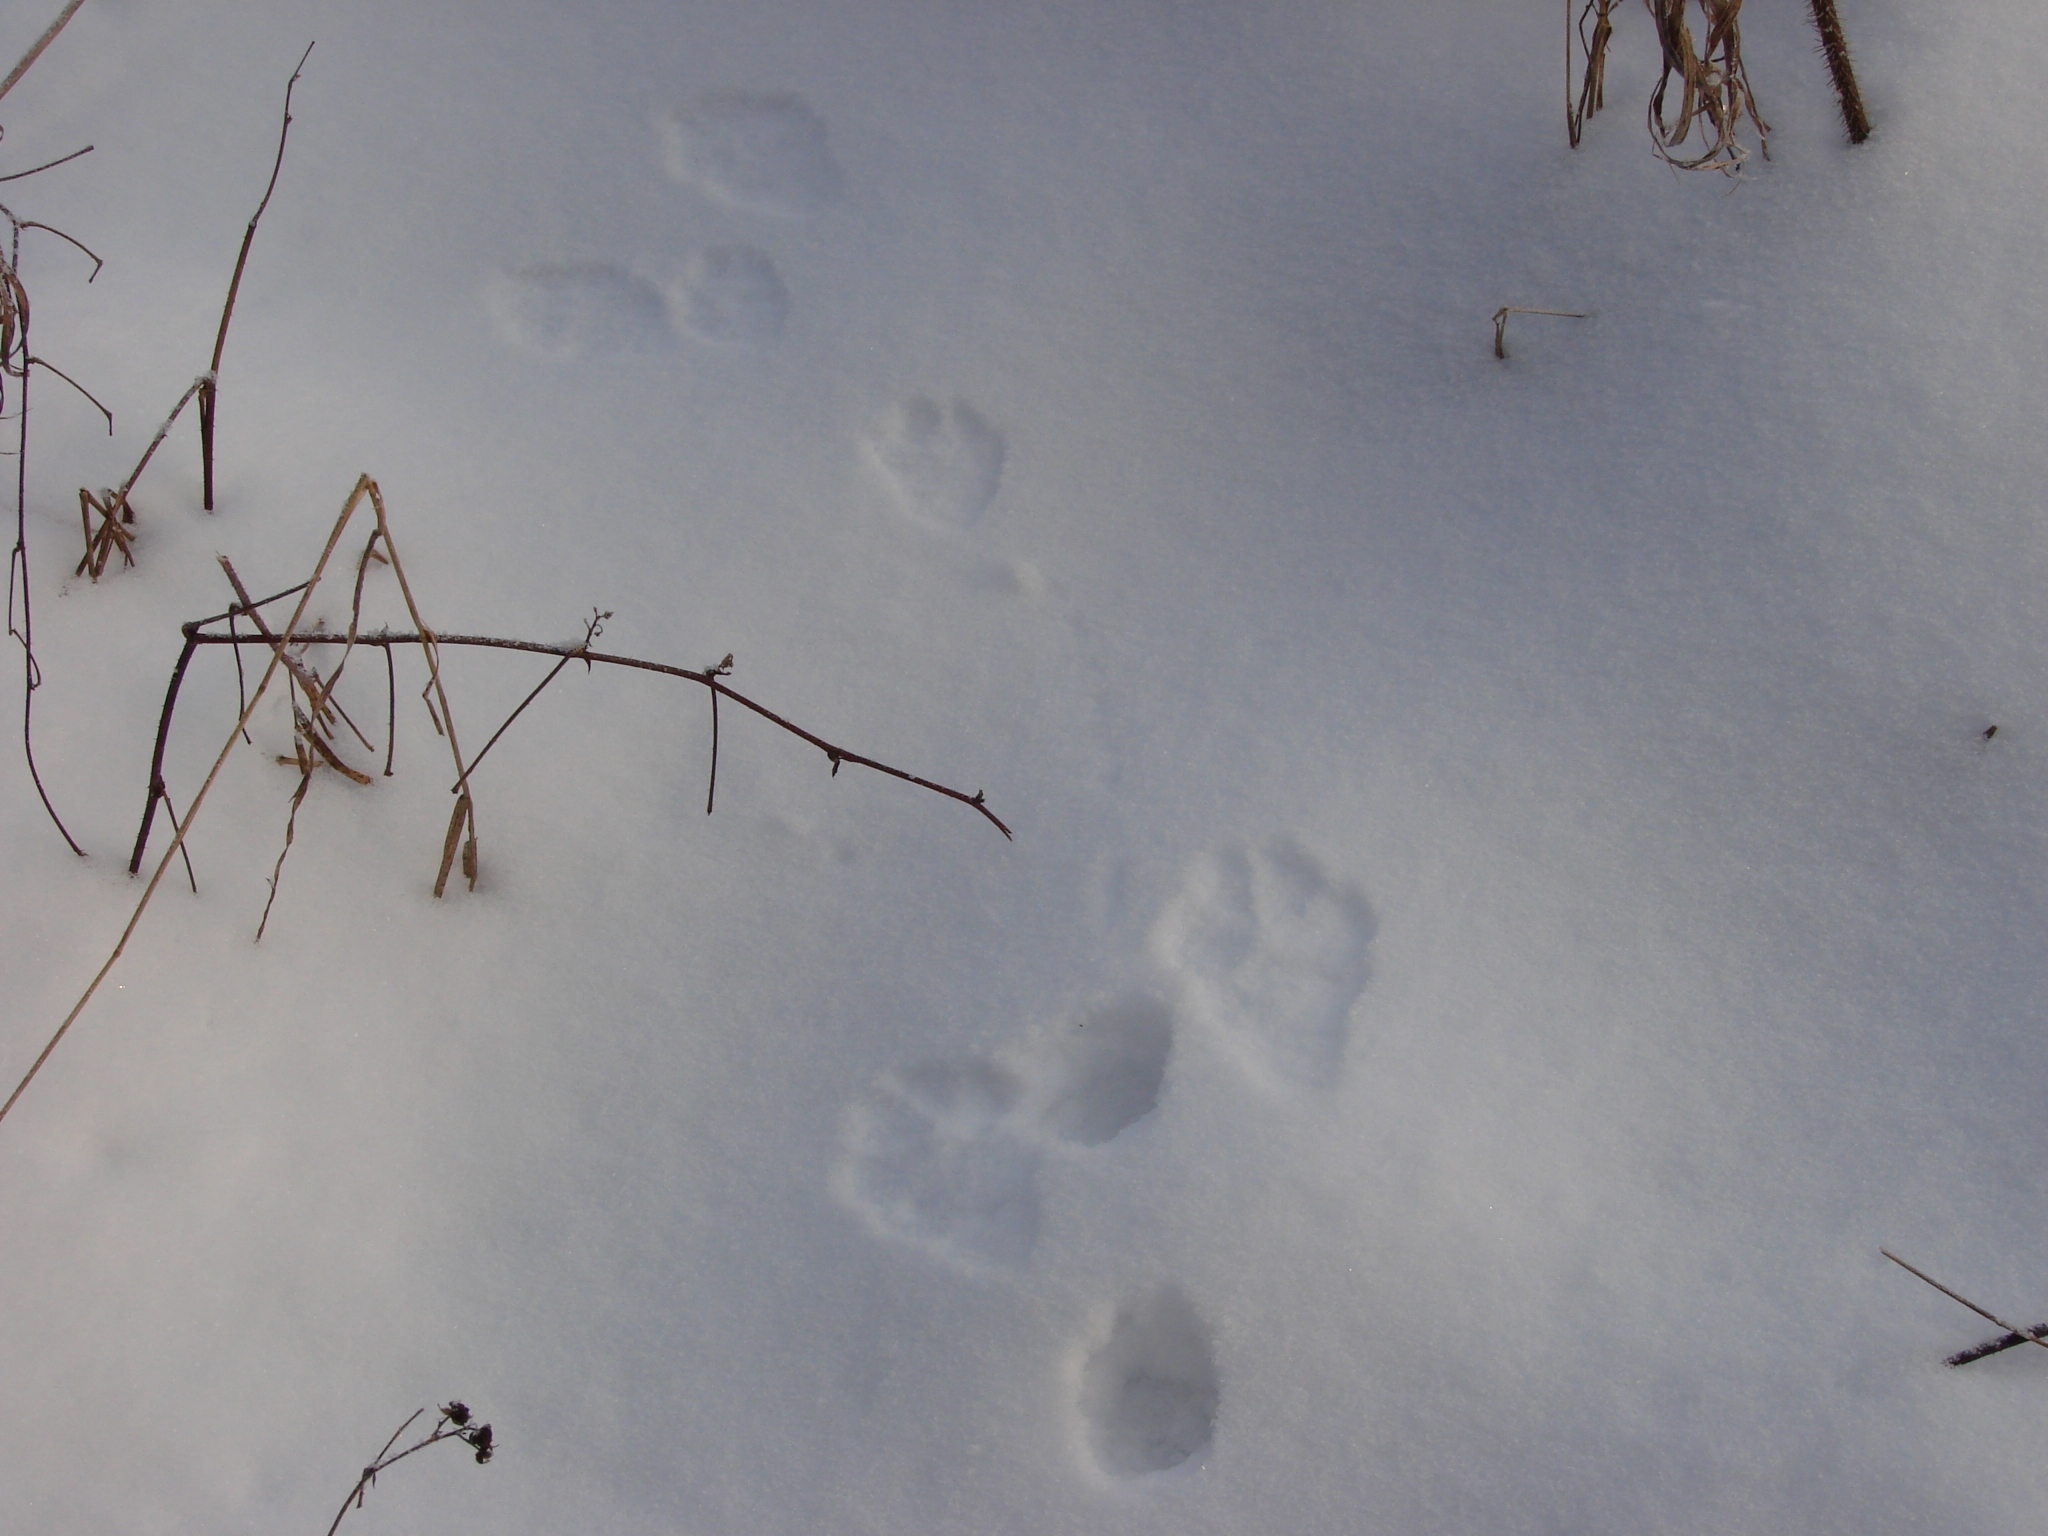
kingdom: Animalia
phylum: Chordata
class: Mammalia
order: Lagomorpha
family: Leporidae
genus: Lepus
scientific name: Lepus timidus
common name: Mountain hare
